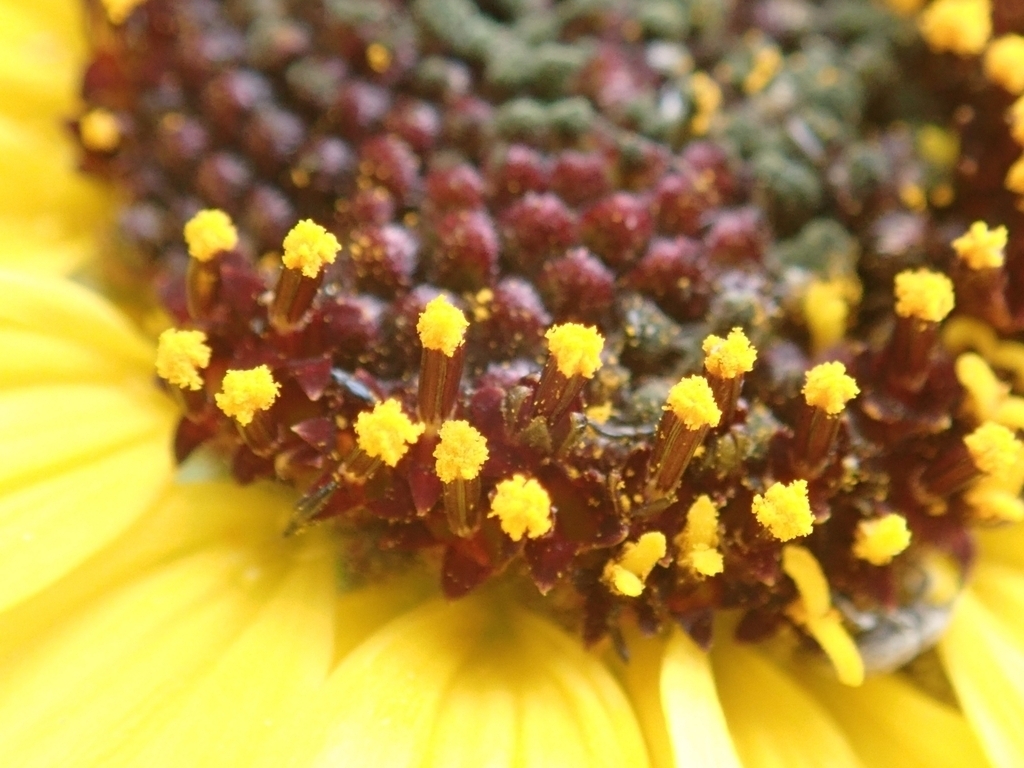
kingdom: Plantae
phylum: Tracheophyta
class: Magnoliopsida
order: Asterales
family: Asteraceae
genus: Encelia
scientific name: Encelia californica
